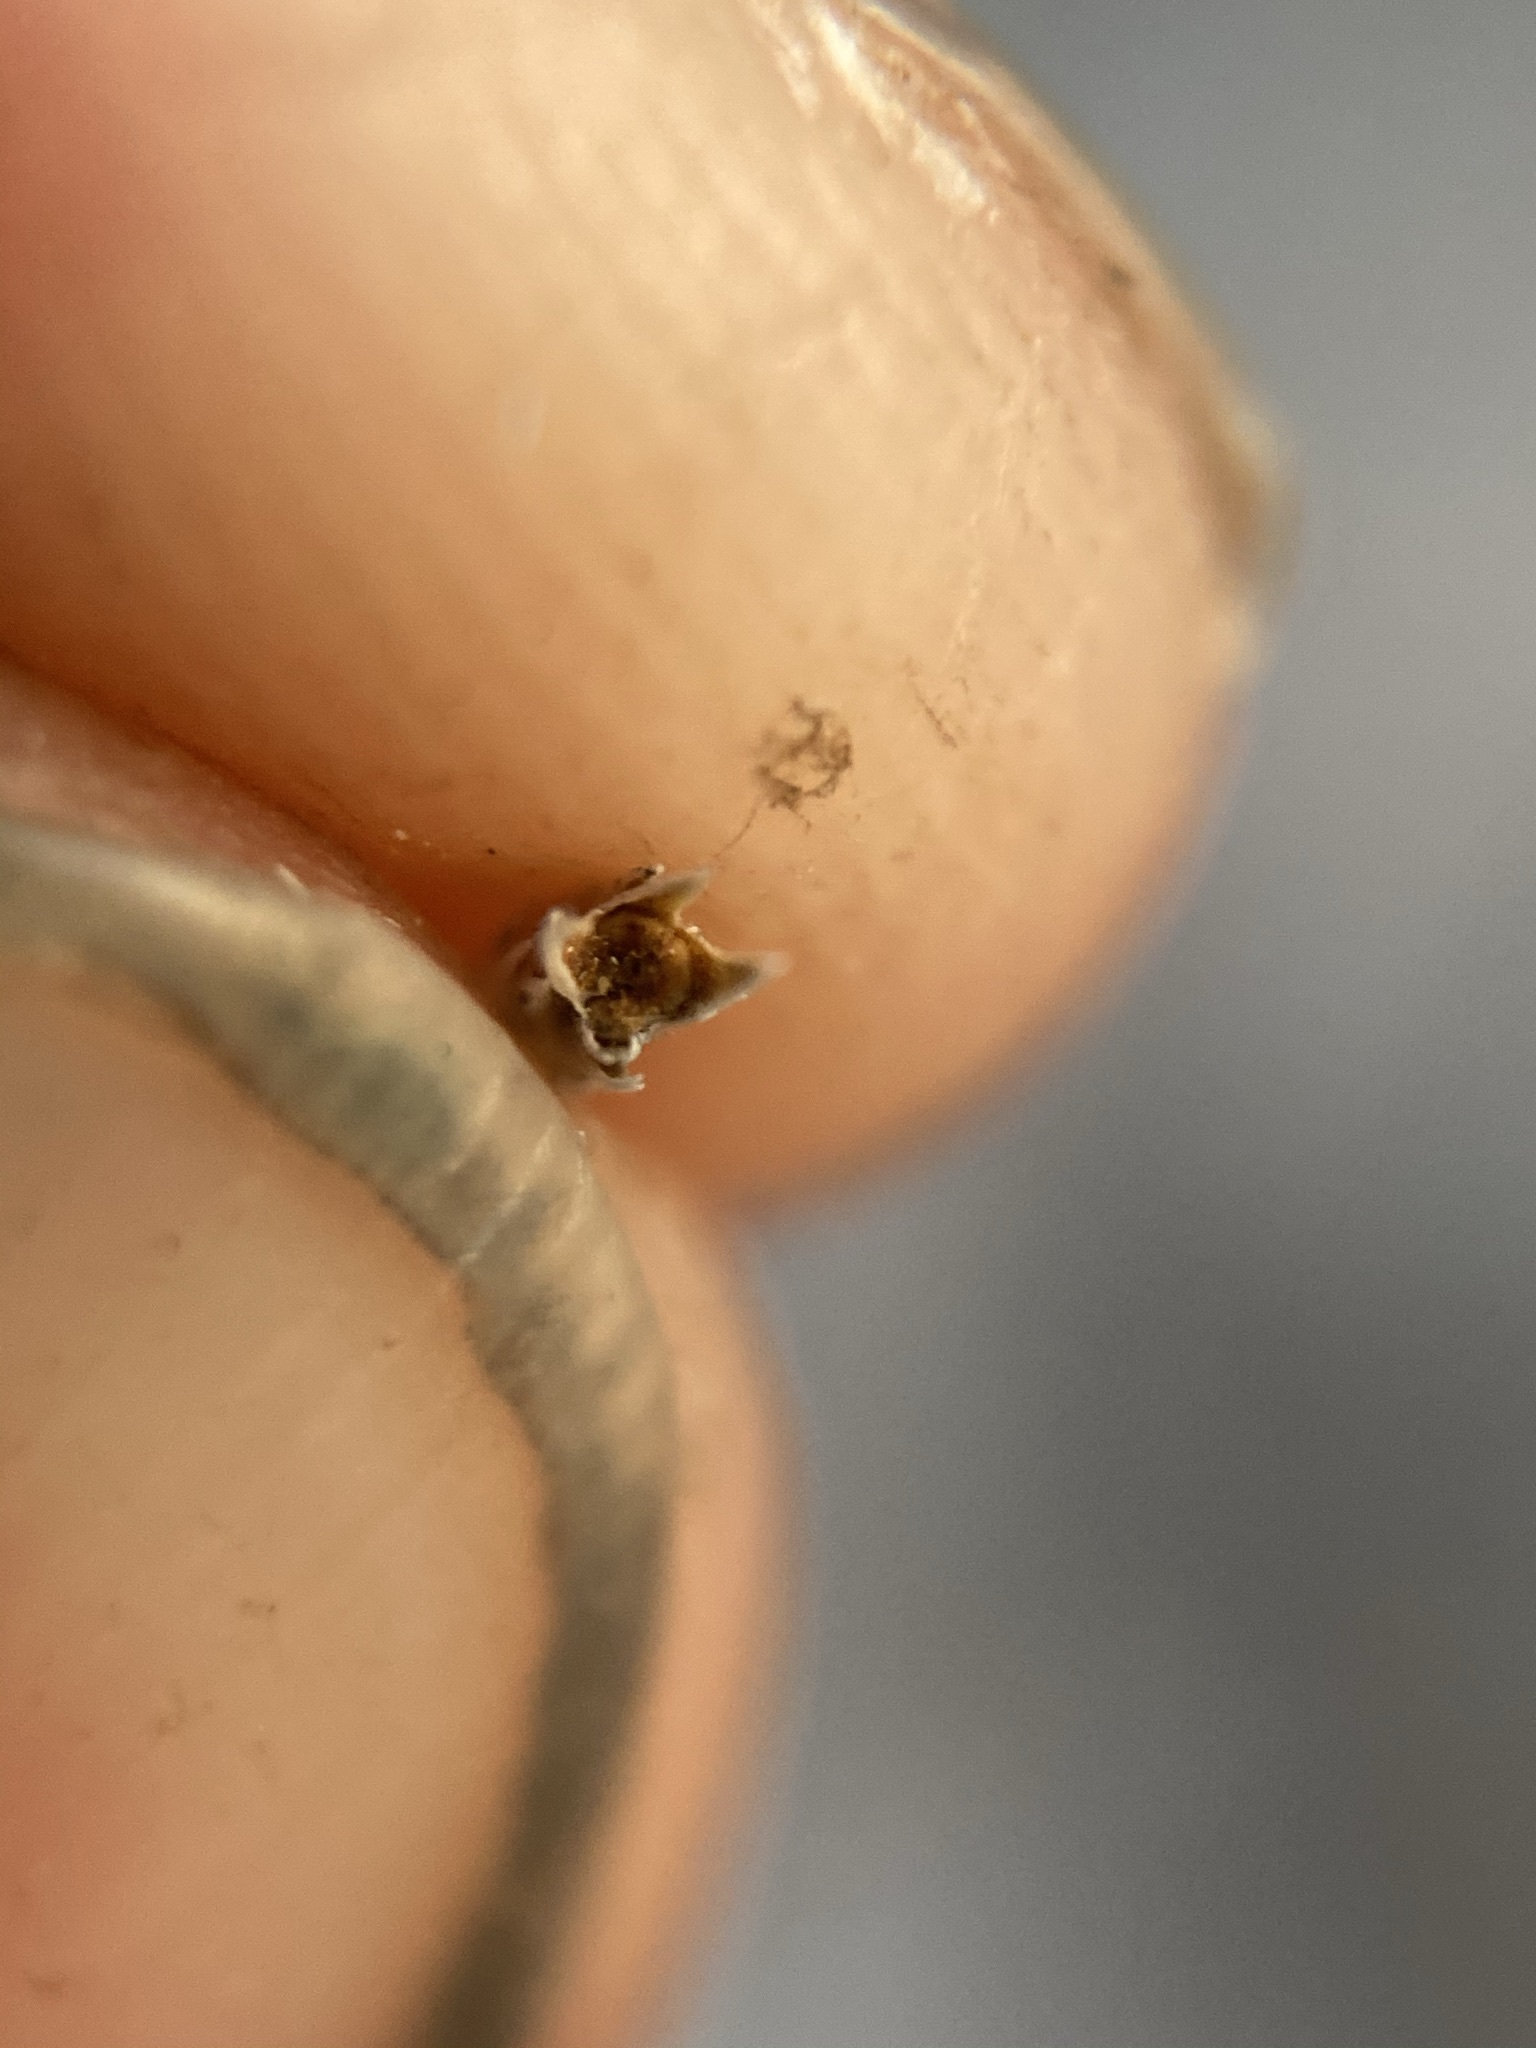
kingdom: Plantae
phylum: Tracheophyta
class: Lycopodiopsida
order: Selaginellales
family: Selaginellaceae
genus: Selaginella
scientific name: Selaginella wrightii
